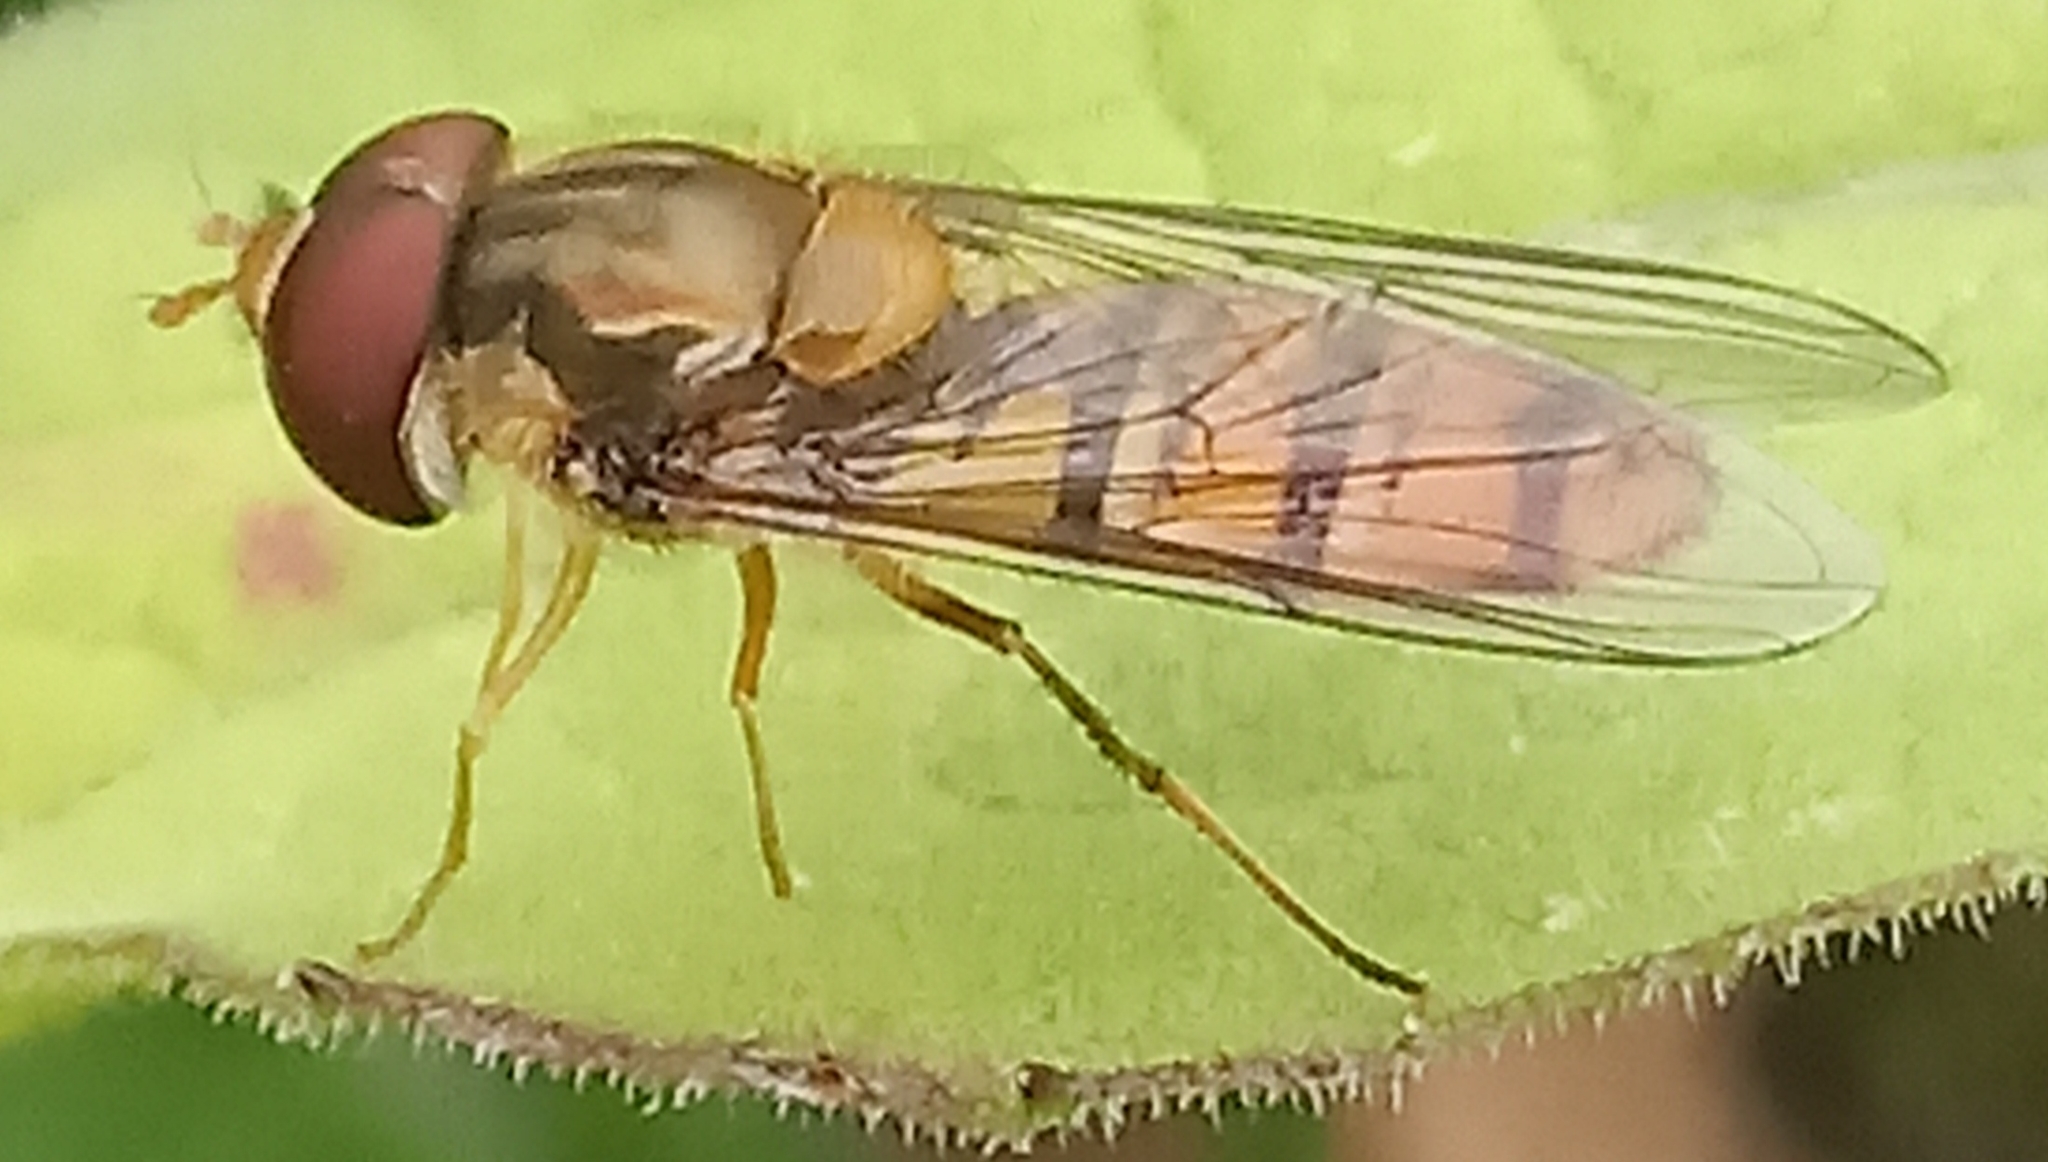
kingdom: Animalia
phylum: Arthropoda
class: Insecta
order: Diptera
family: Syrphidae
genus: Episyrphus
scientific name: Episyrphus balteatus
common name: Marmalade hoverfly
